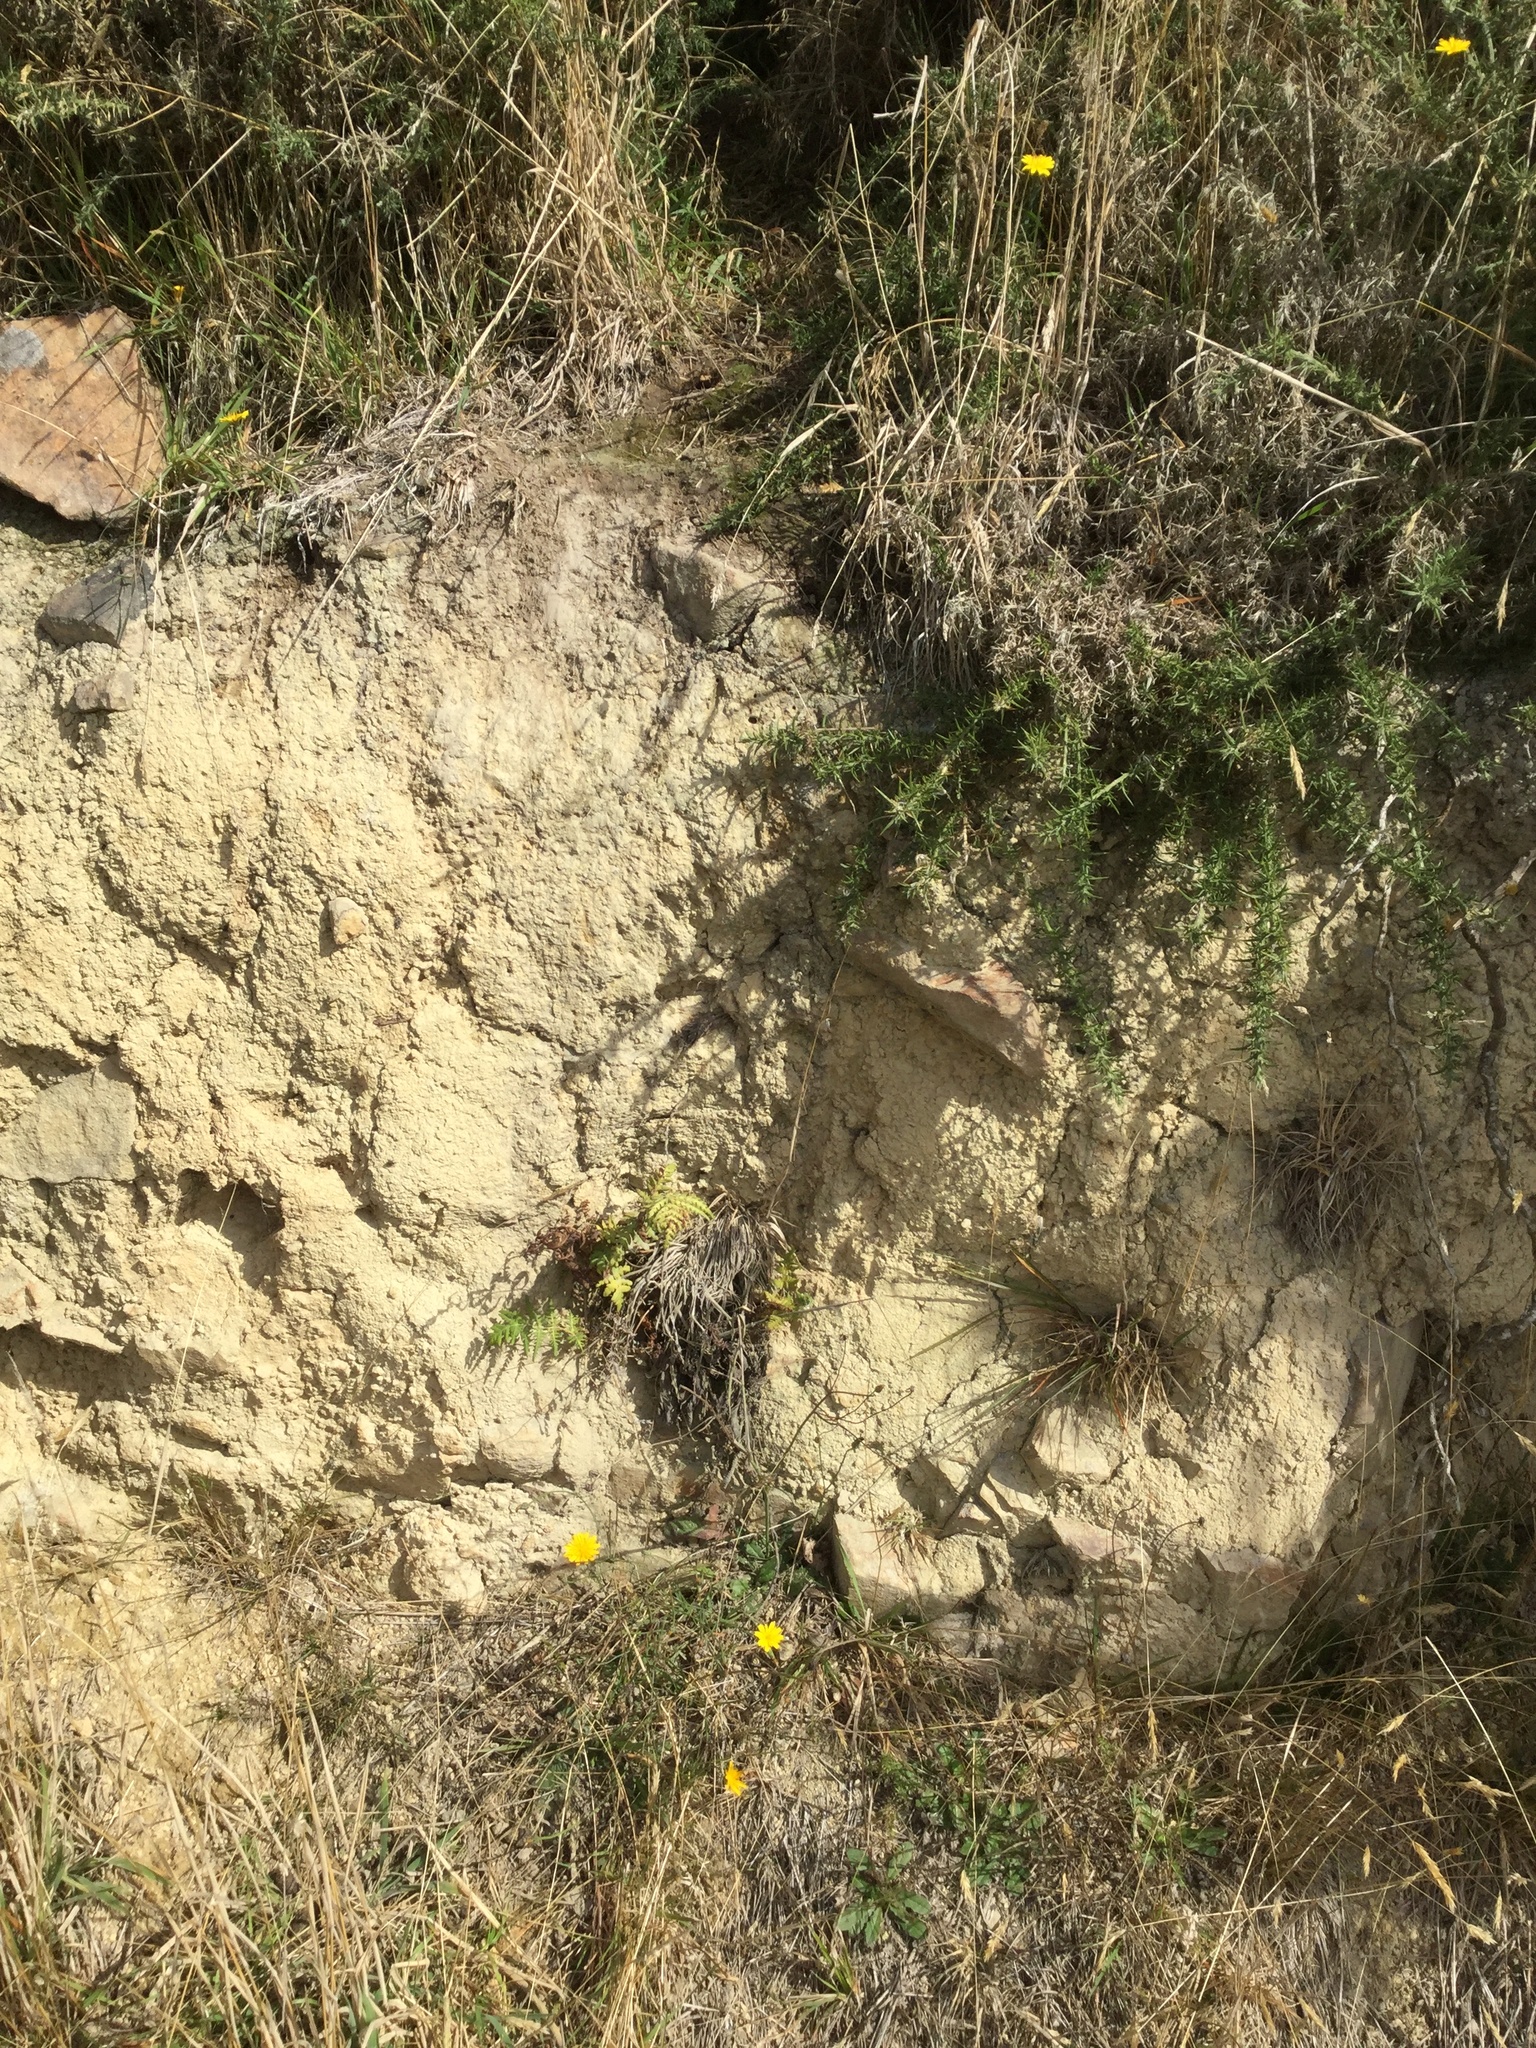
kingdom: Plantae
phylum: Tracheophyta
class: Polypodiopsida
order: Polypodiales
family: Dennstaedtiaceae
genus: Histiopteris
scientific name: Histiopteris incisa
